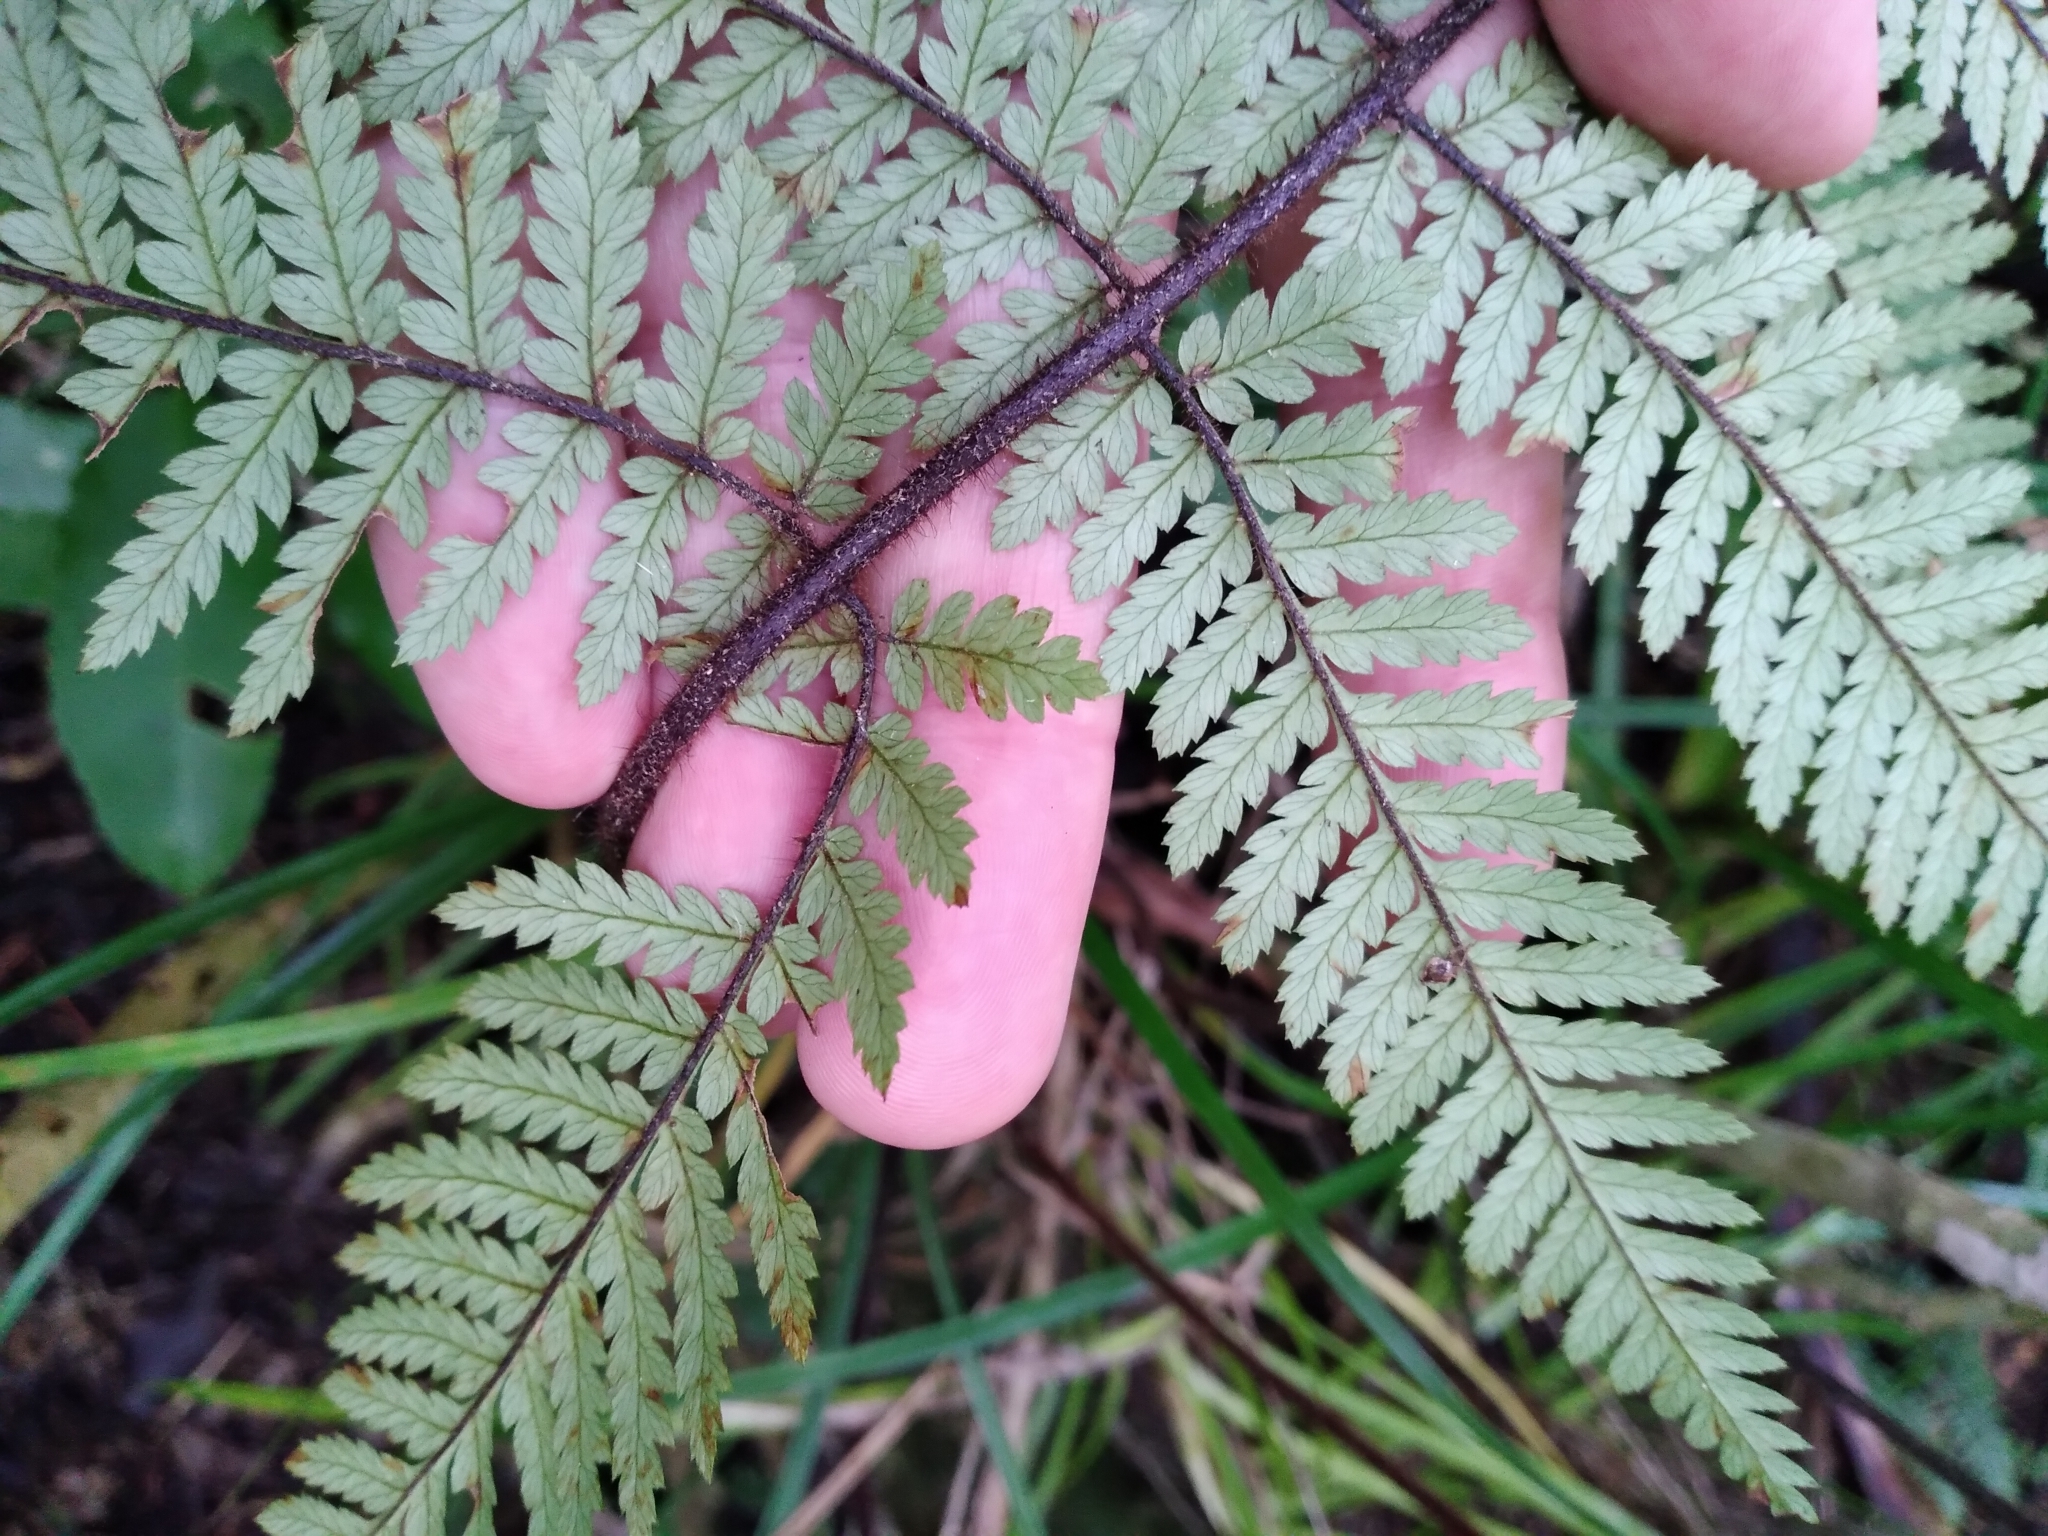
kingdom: Plantae
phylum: Tracheophyta
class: Polypodiopsida
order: Cyatheales
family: Dicksoniaceae
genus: Dicksonia
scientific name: Dicksonia squarrosa
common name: Hard treefern
